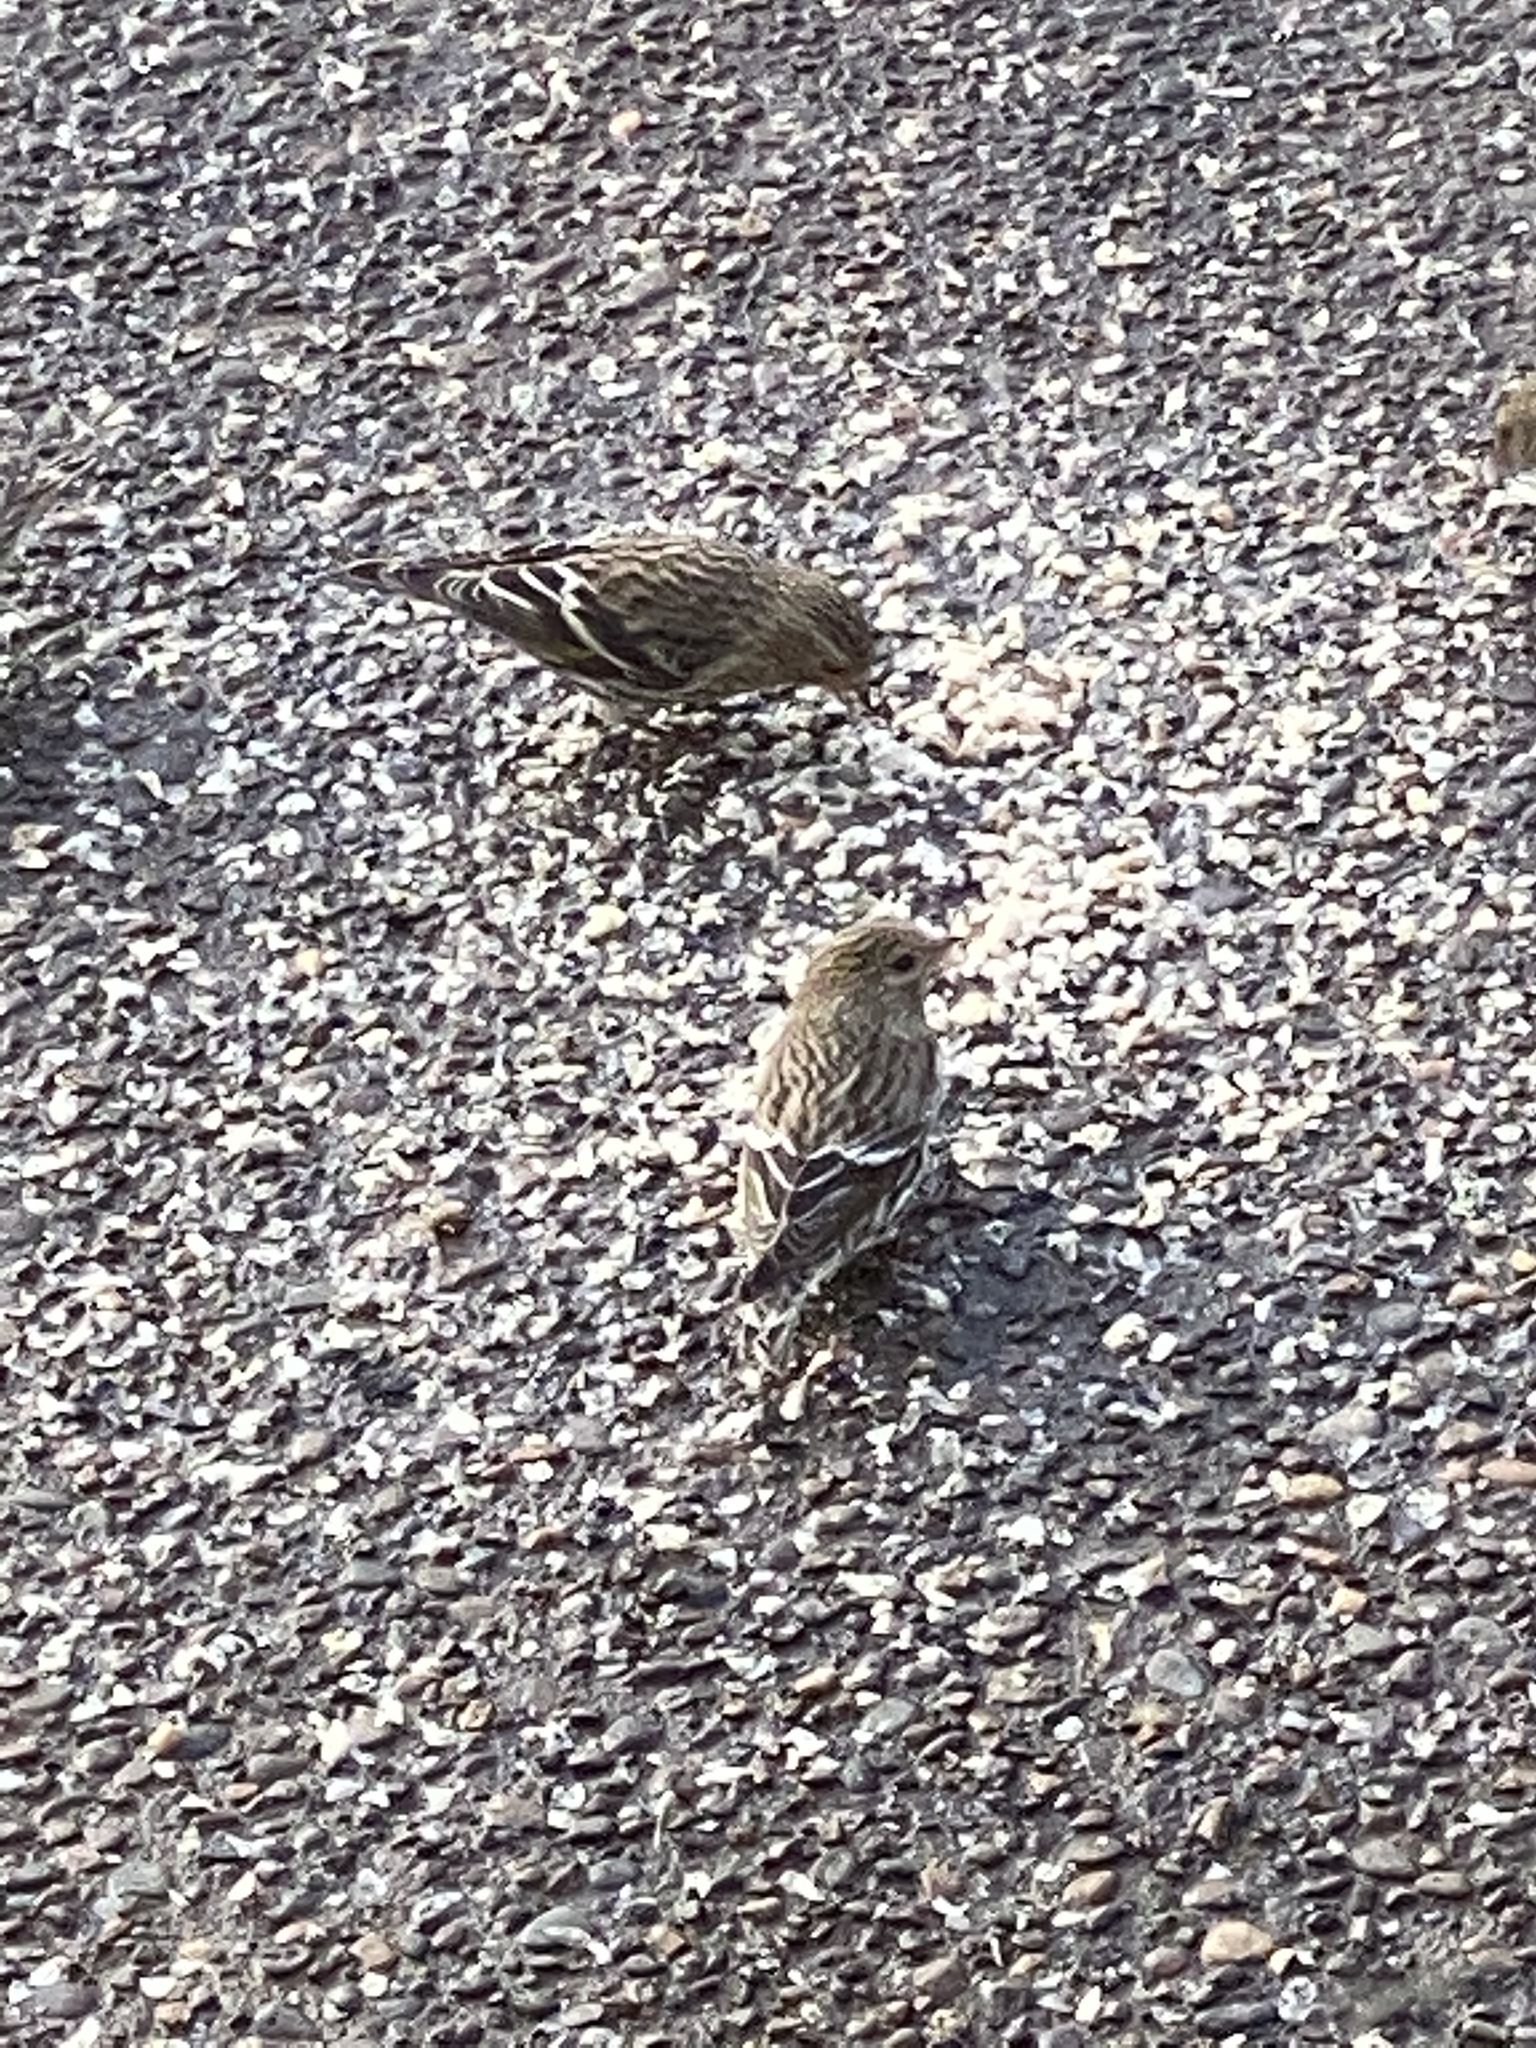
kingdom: Animalia
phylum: Chordata
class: Aves
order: Passeriformes
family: Fringillidae
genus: Spinus
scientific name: Spinus pinus
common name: Pine siskin
